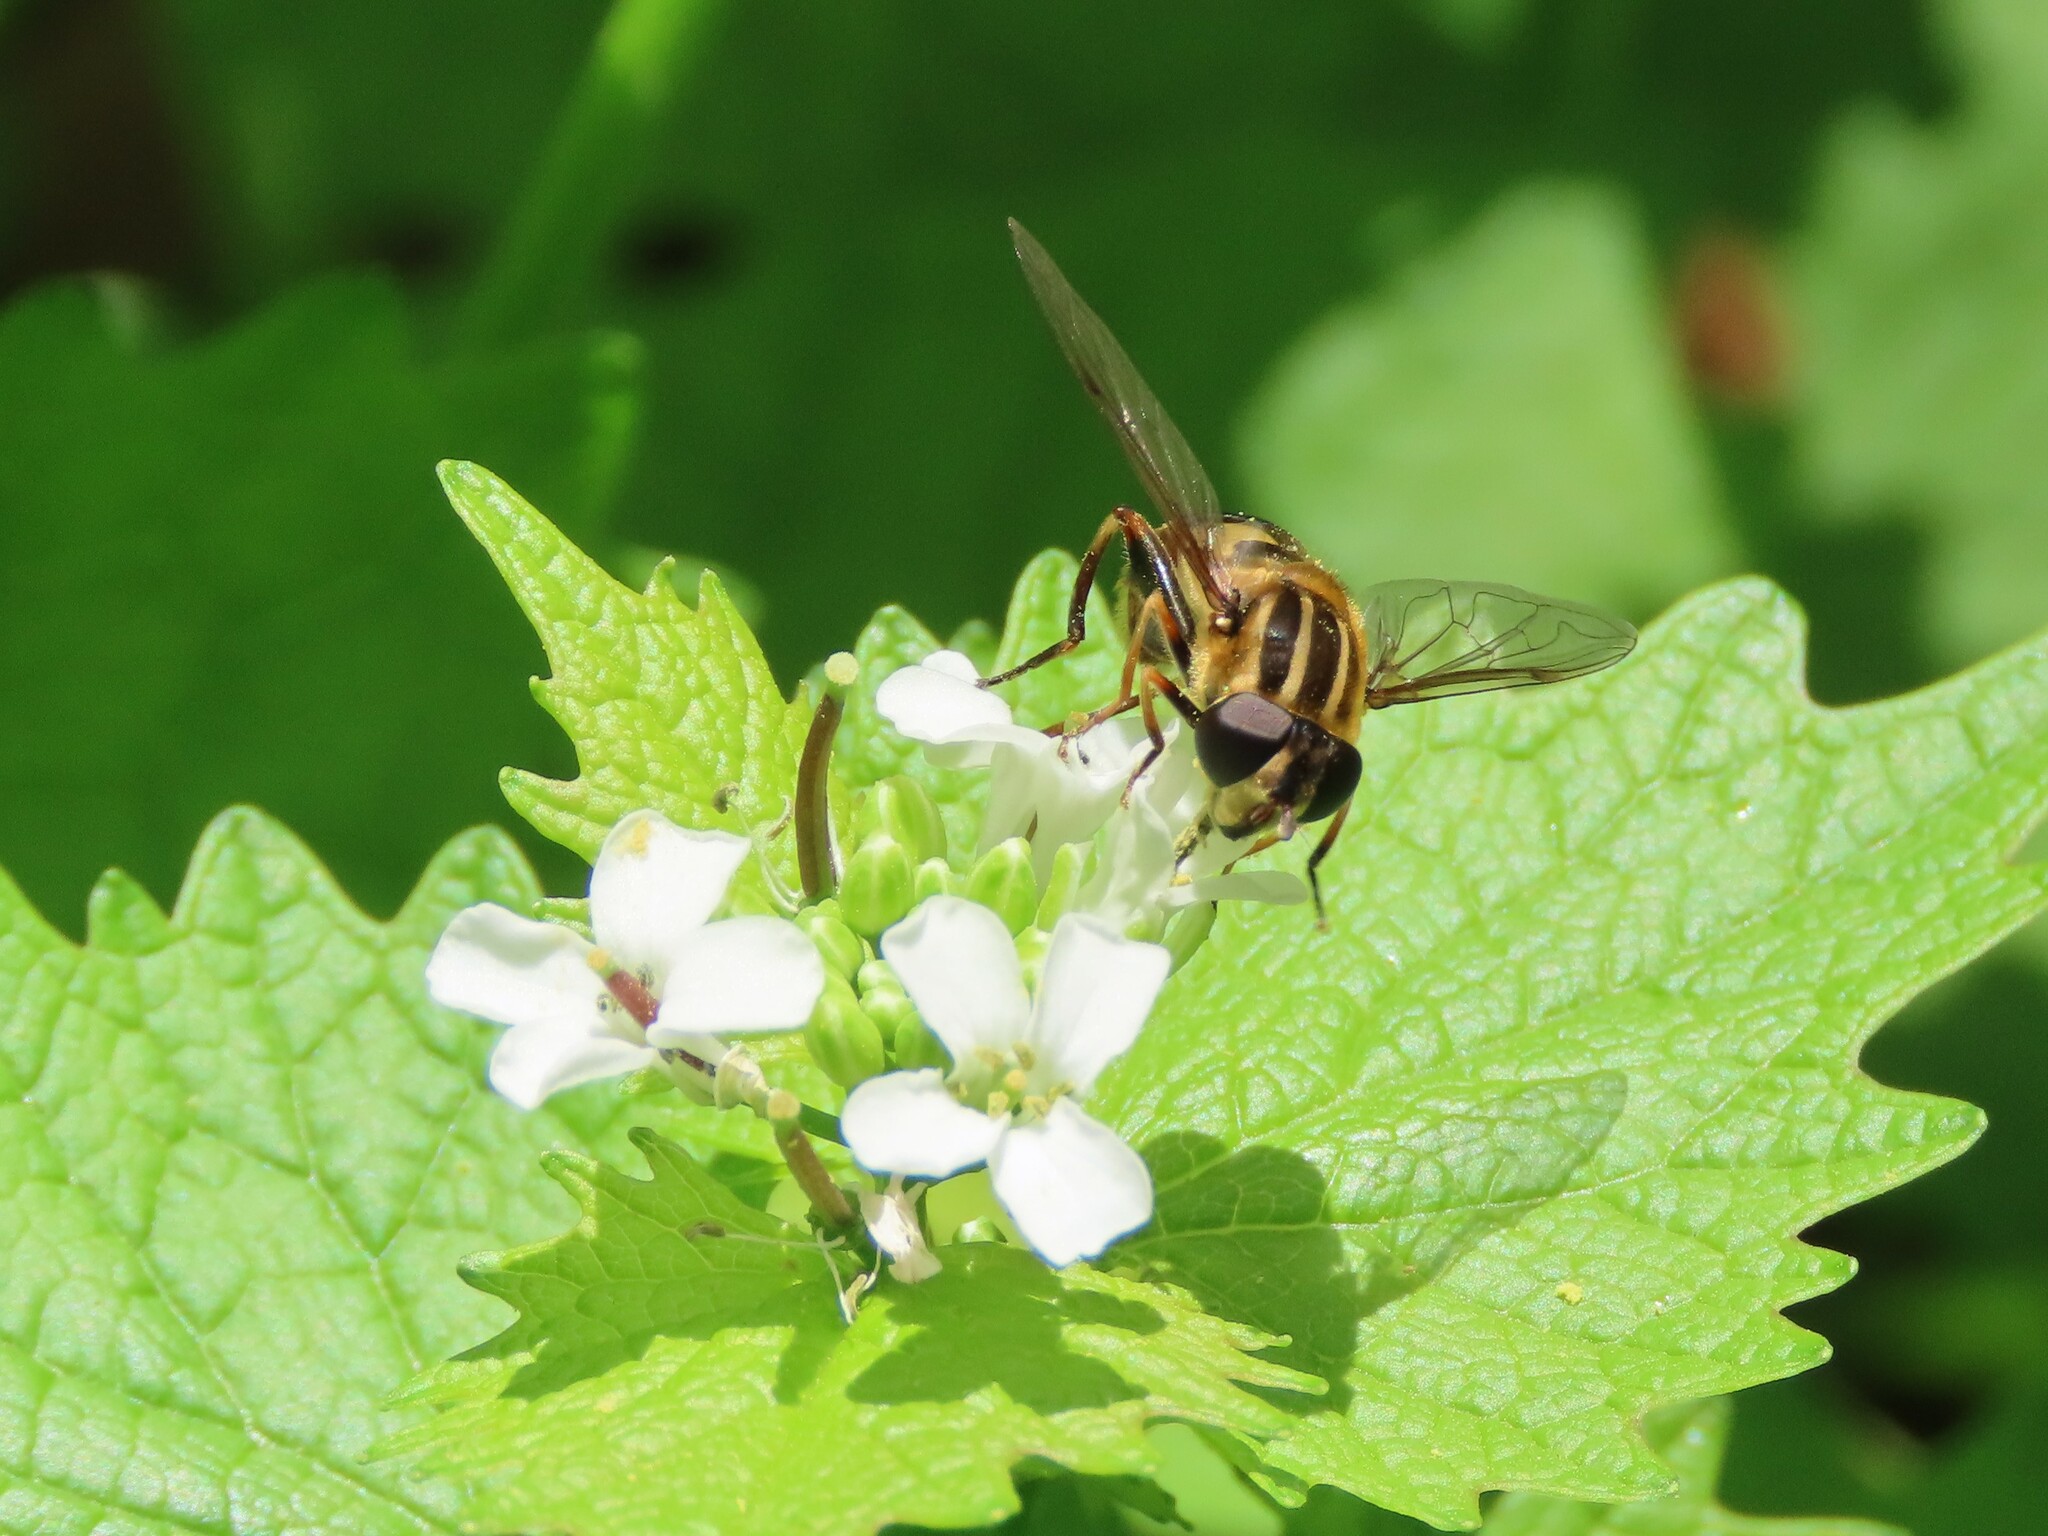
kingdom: Animalia
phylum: Arthropoda
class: Insecta
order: Diptera
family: Syrphidae
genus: Helophilus
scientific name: Helophilus fasciatus
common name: Narrow-headed marsh fly
